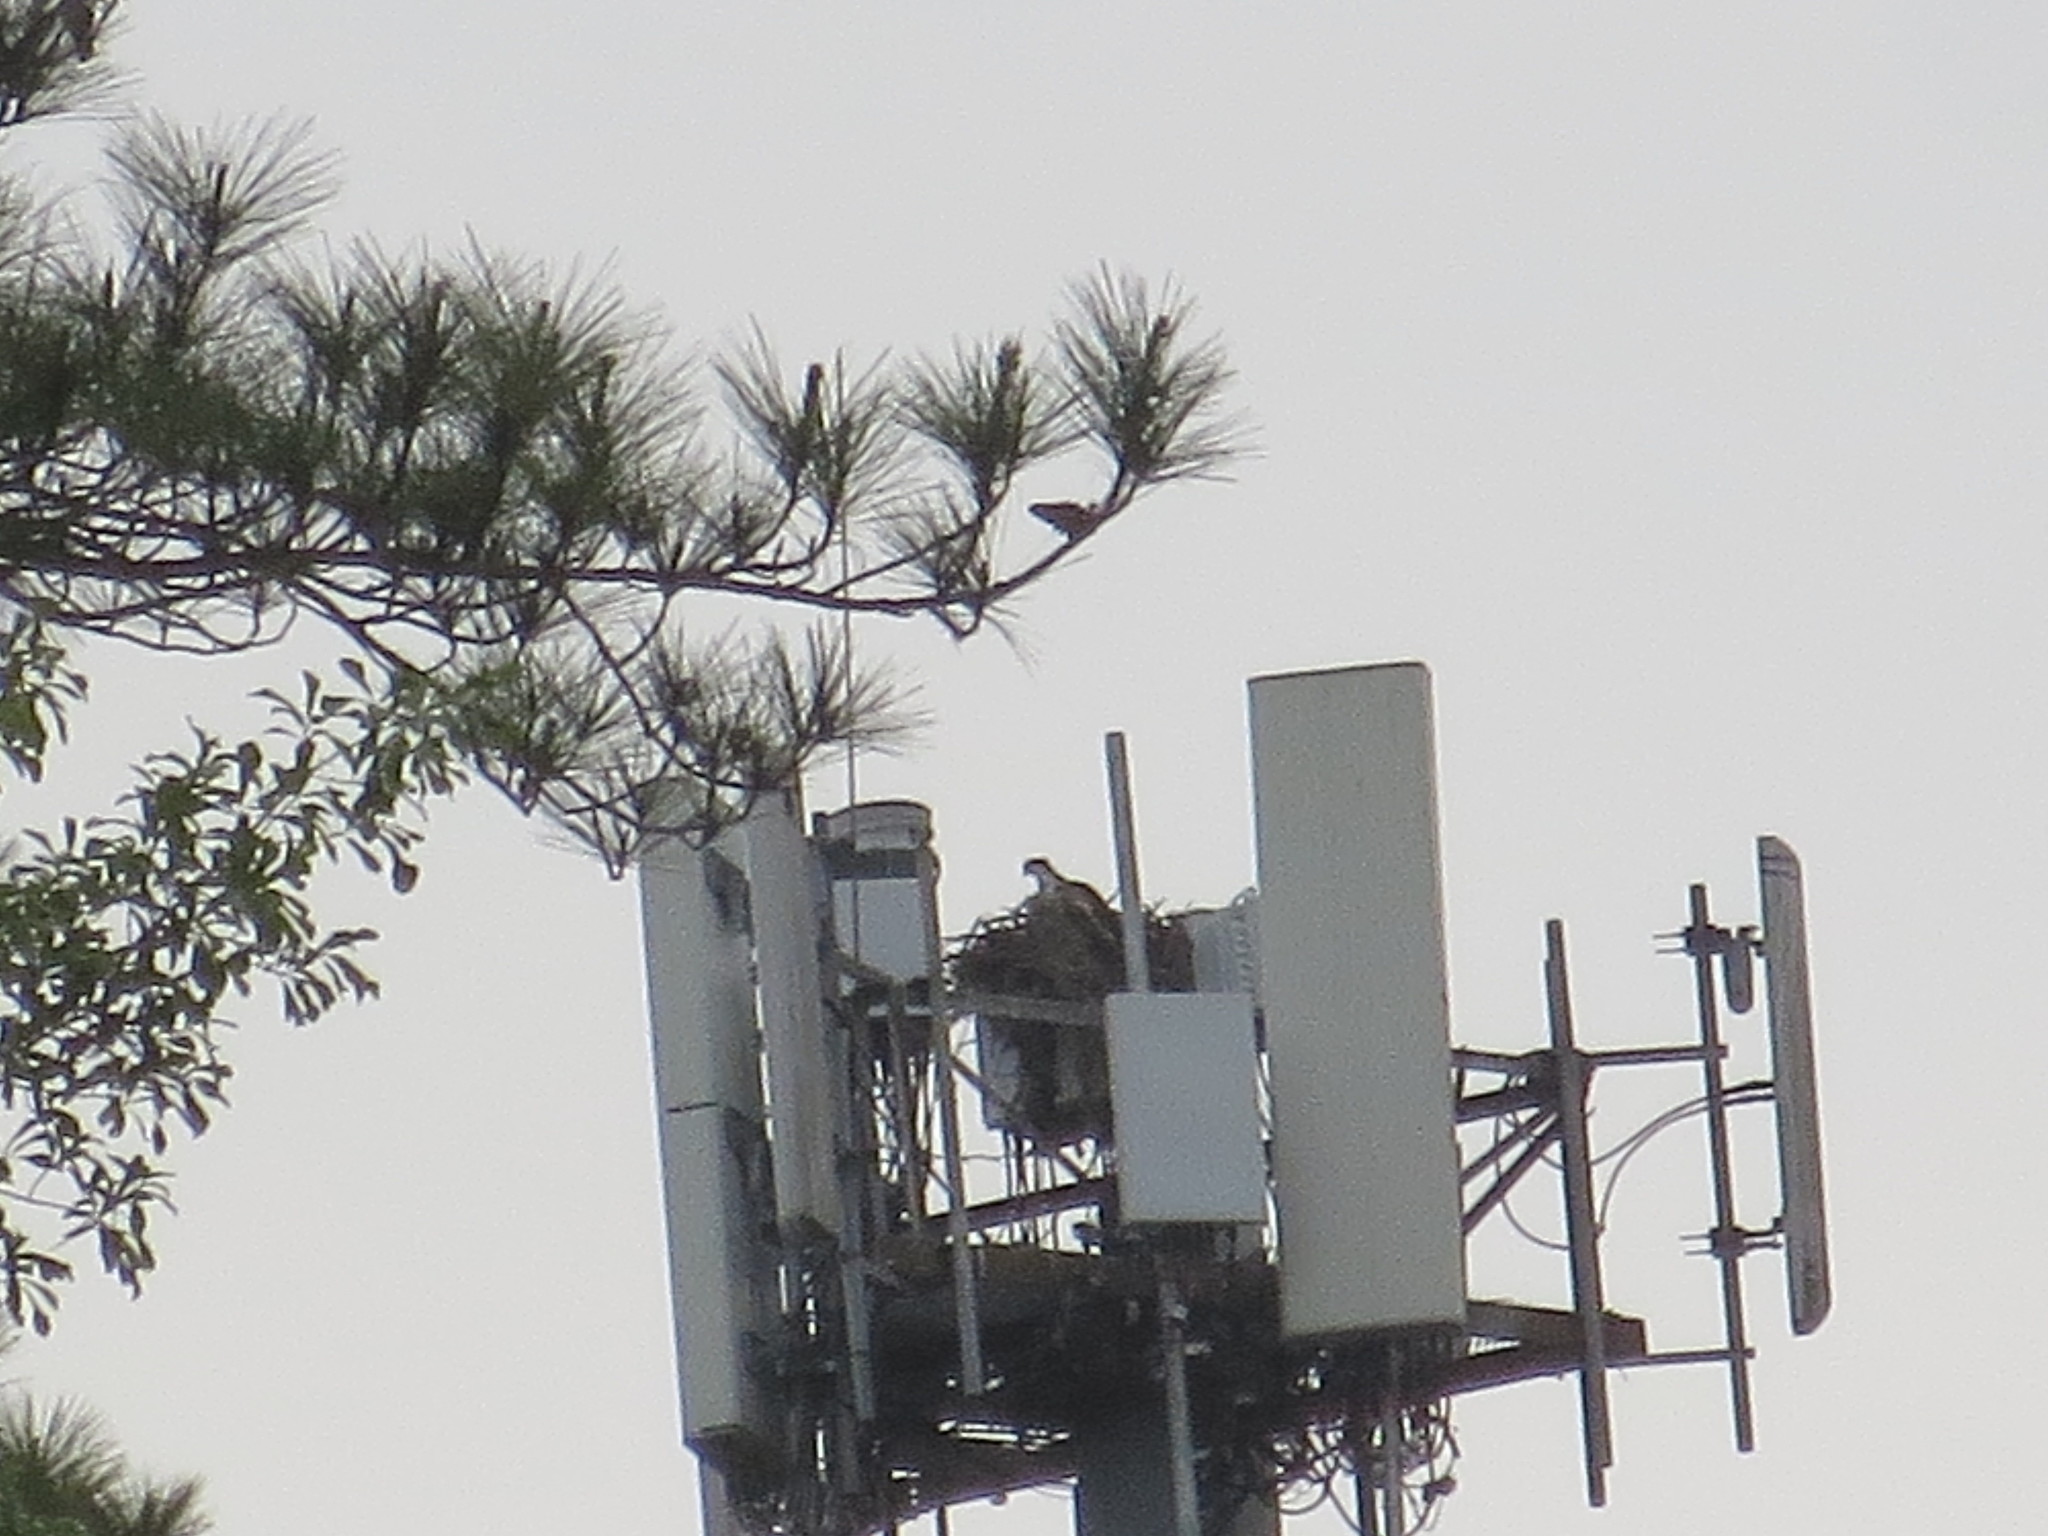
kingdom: Animalia
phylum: Chordata
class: Aves
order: Accipitriformes
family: Pandionidae
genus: Pandion
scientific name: Pandion haliaetus
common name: Osprey
